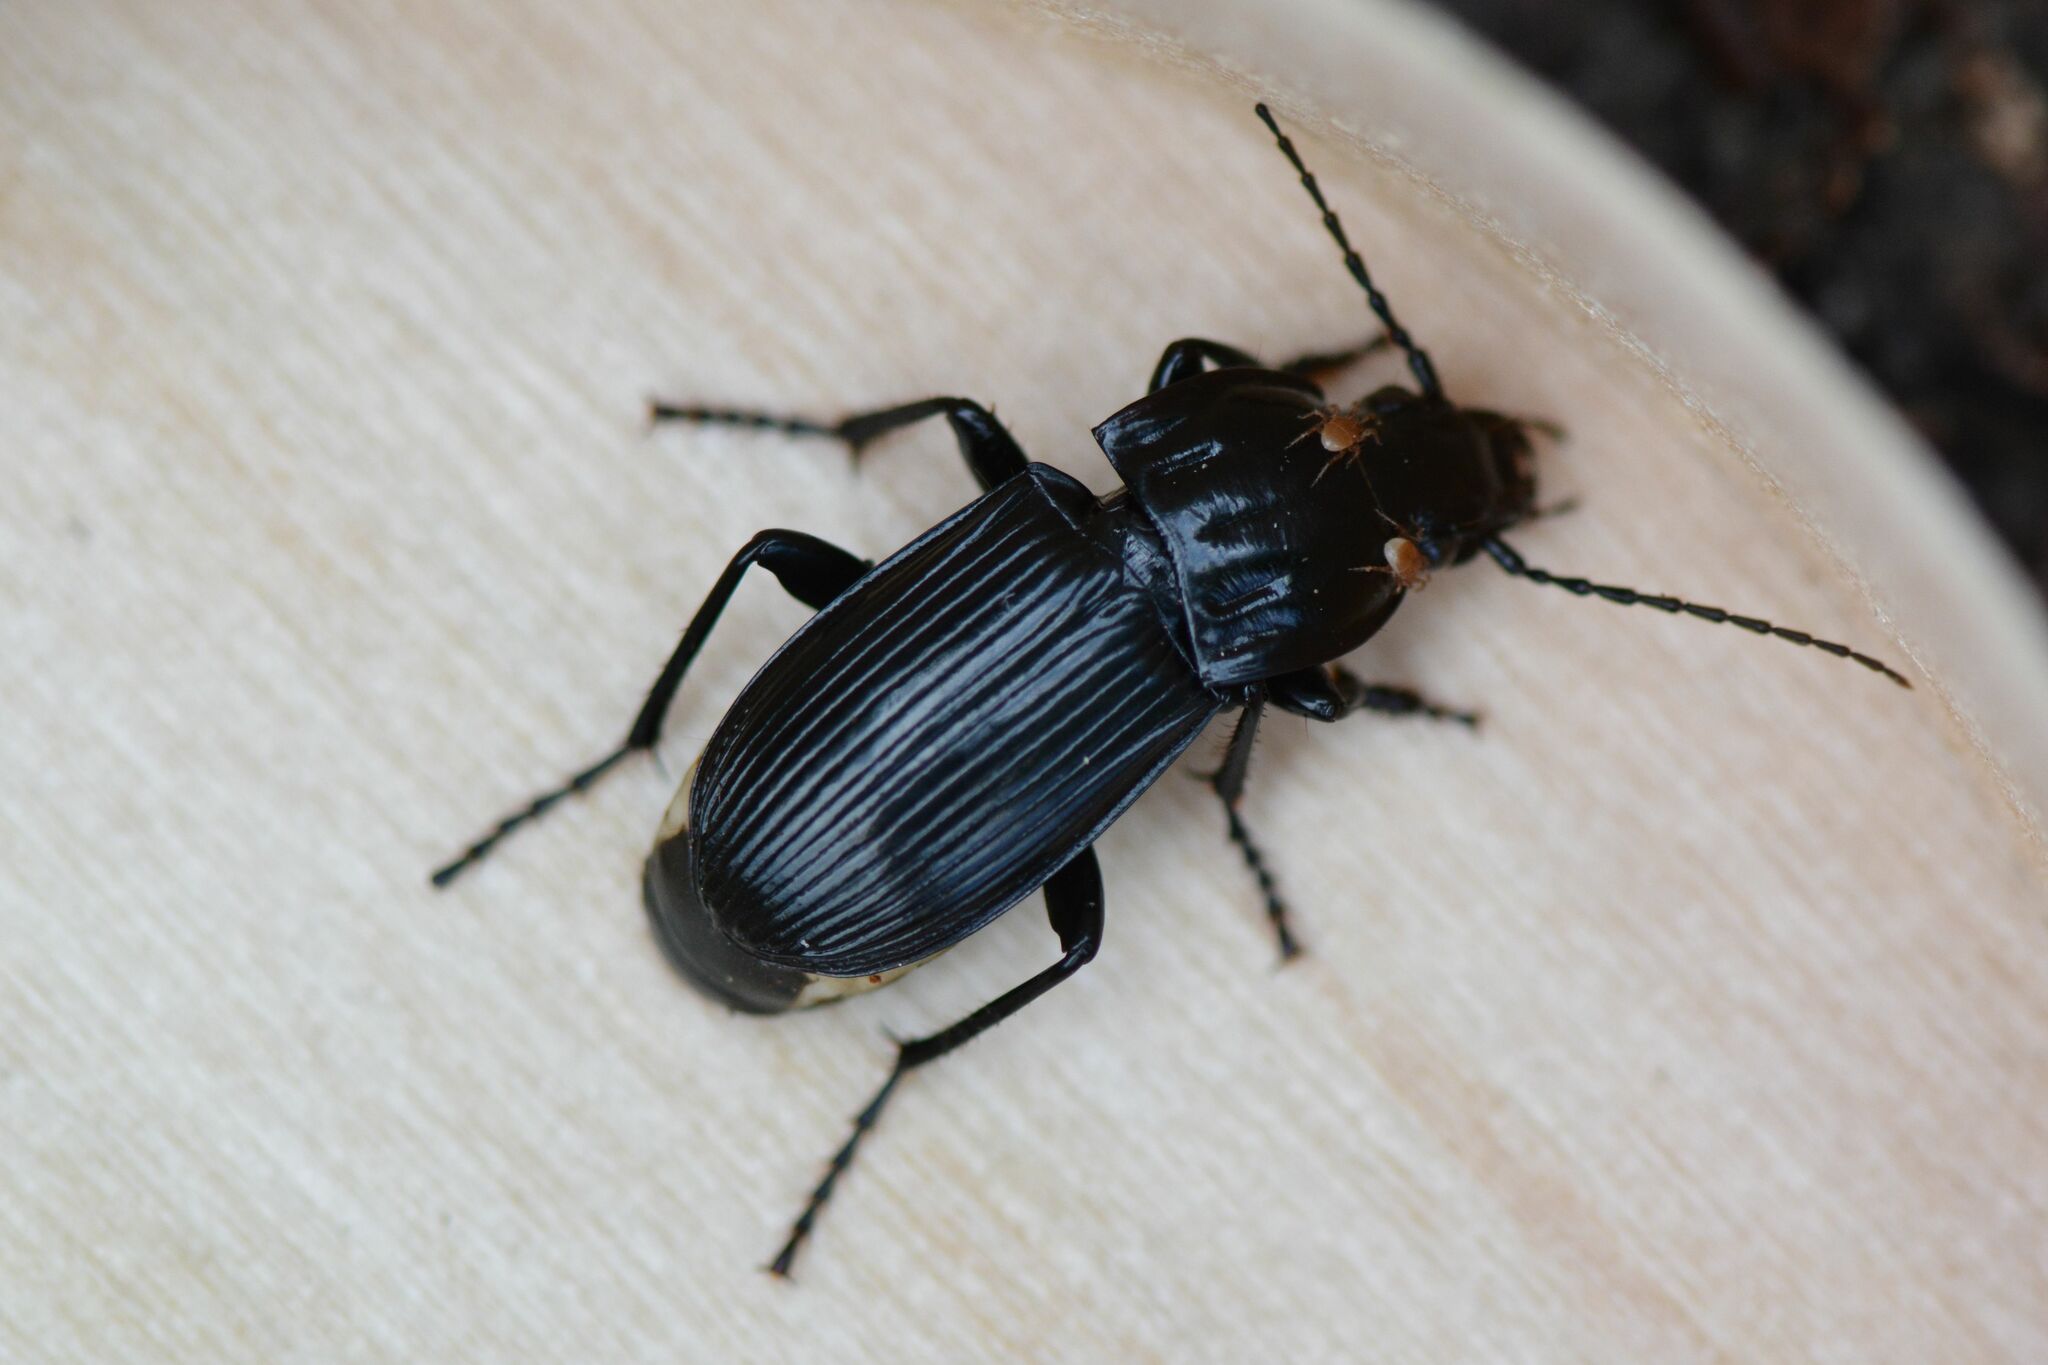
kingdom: Animalia
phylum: Arthropoda
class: Insecta
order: Coleoptera
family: Carabidae
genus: Abax
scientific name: Abax parallelepipedus
